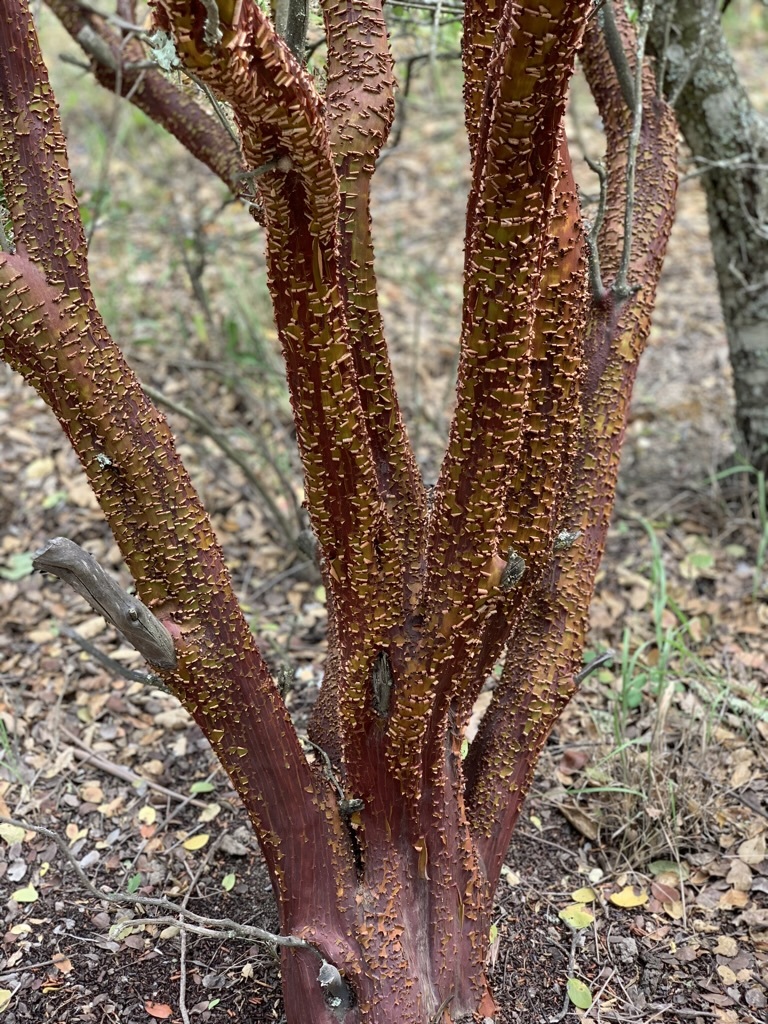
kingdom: Plantae
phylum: Tracheophyta
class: Magnoliopsida
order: Ericales
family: Ericaceae
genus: Arctostaphylos
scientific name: Arctostaphylos manzanita
